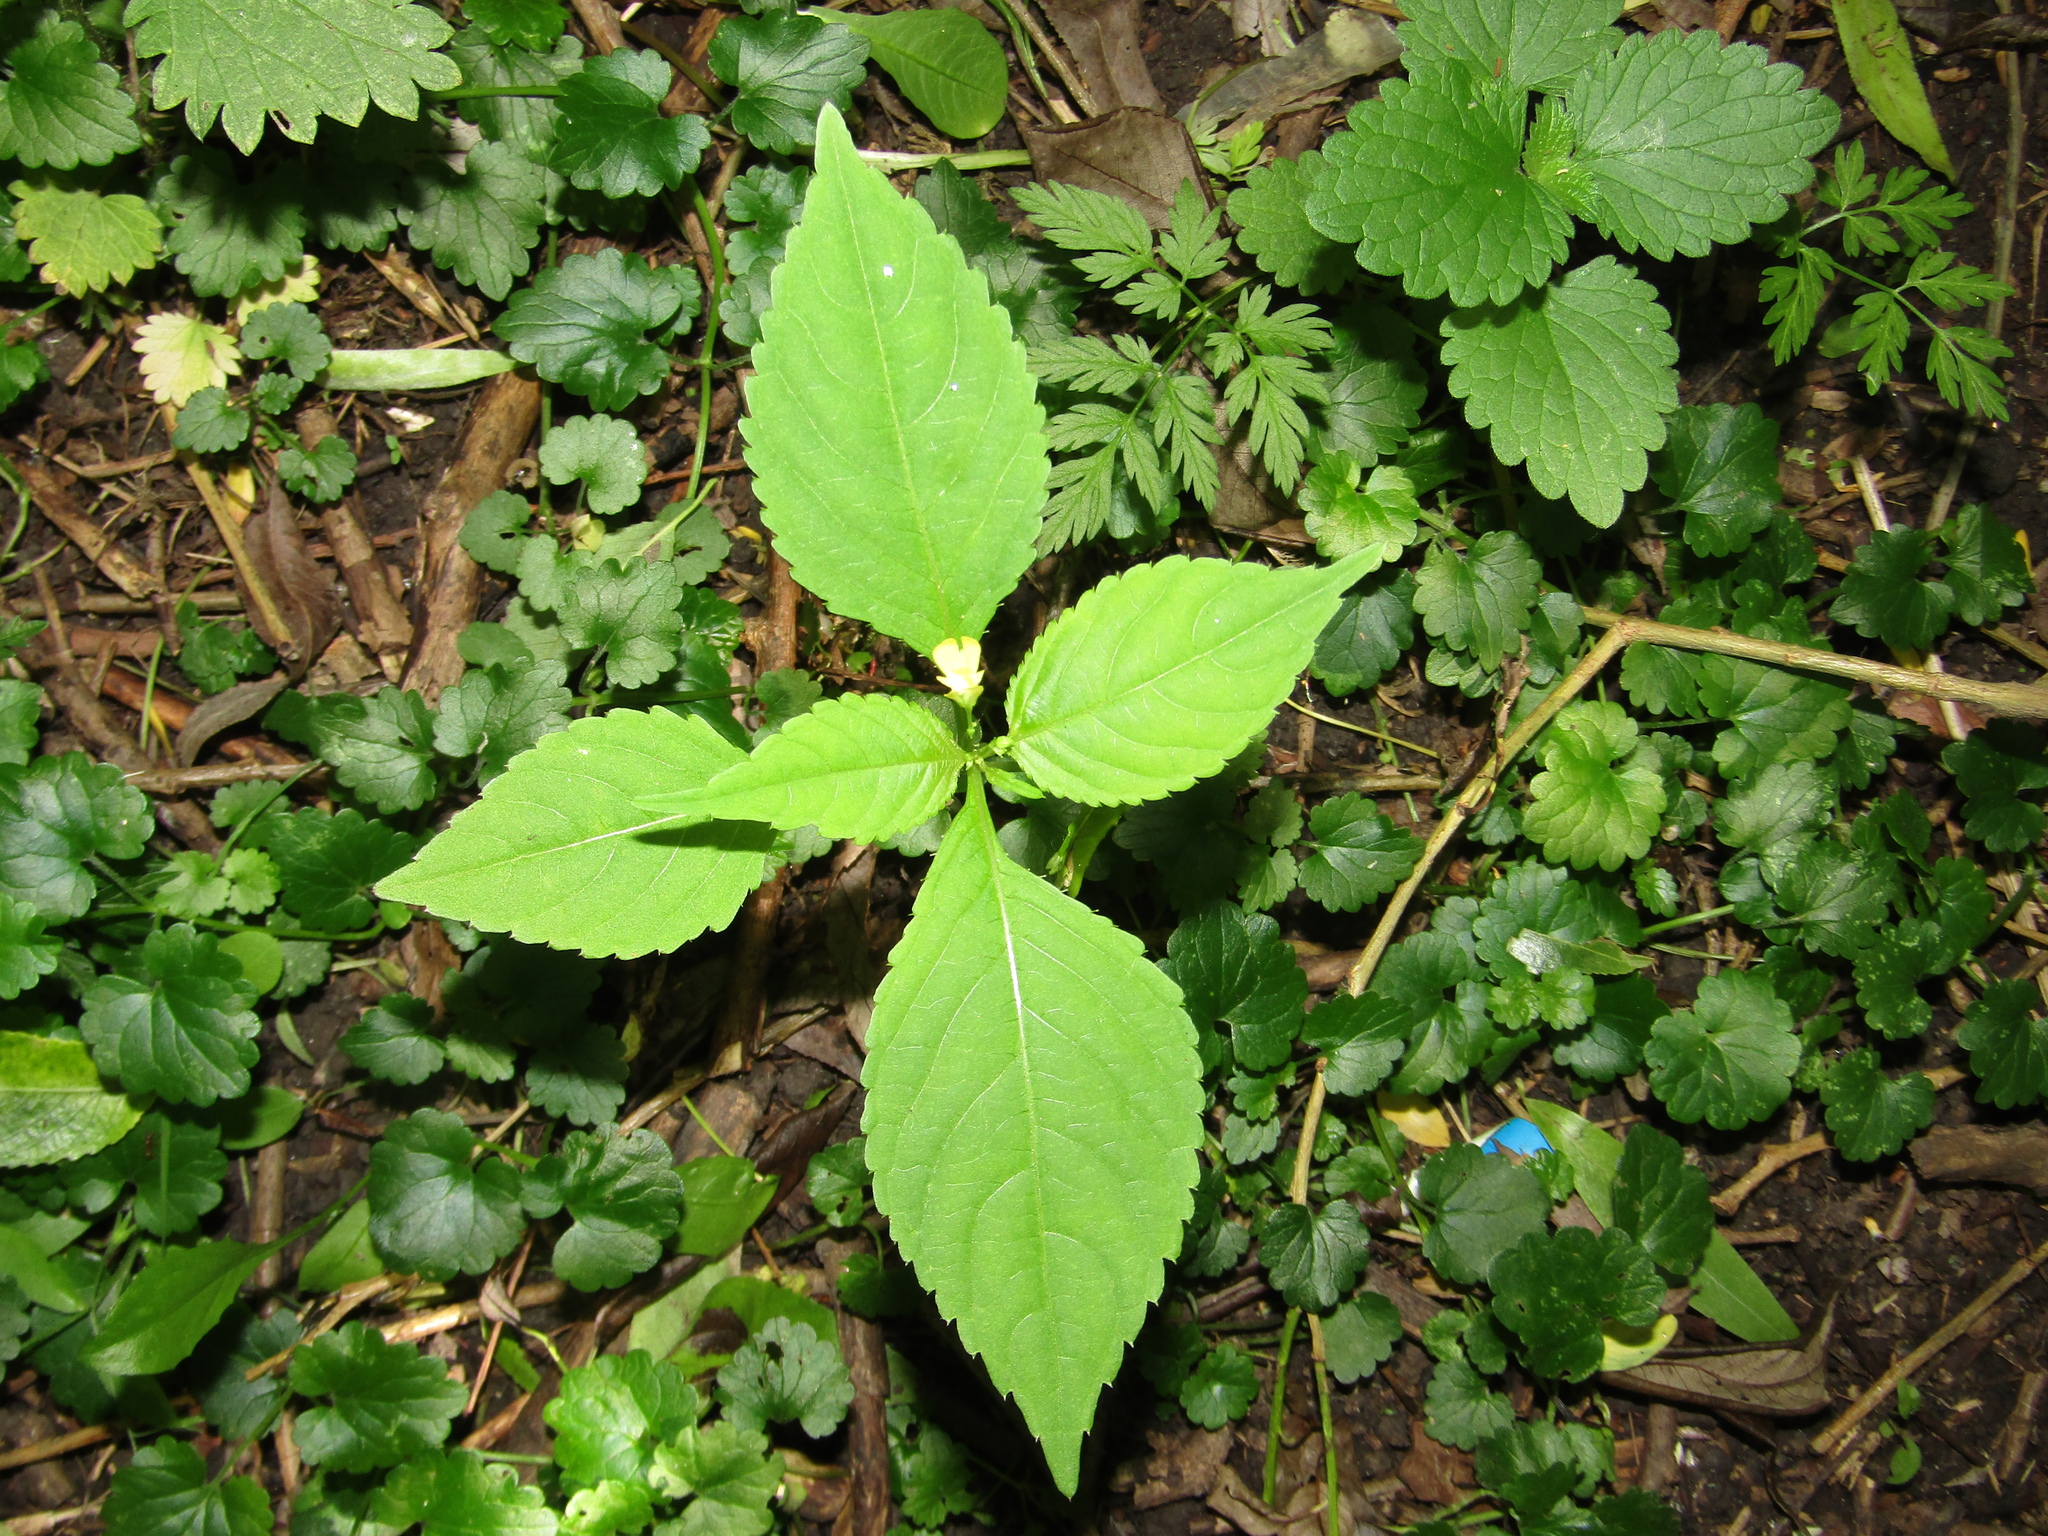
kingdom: Plantae
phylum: Tracheophyta
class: Magnoliopsida
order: Ericales
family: Balsaminaceae
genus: Impatiens
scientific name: Impatiens parviflora
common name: Small balsam
